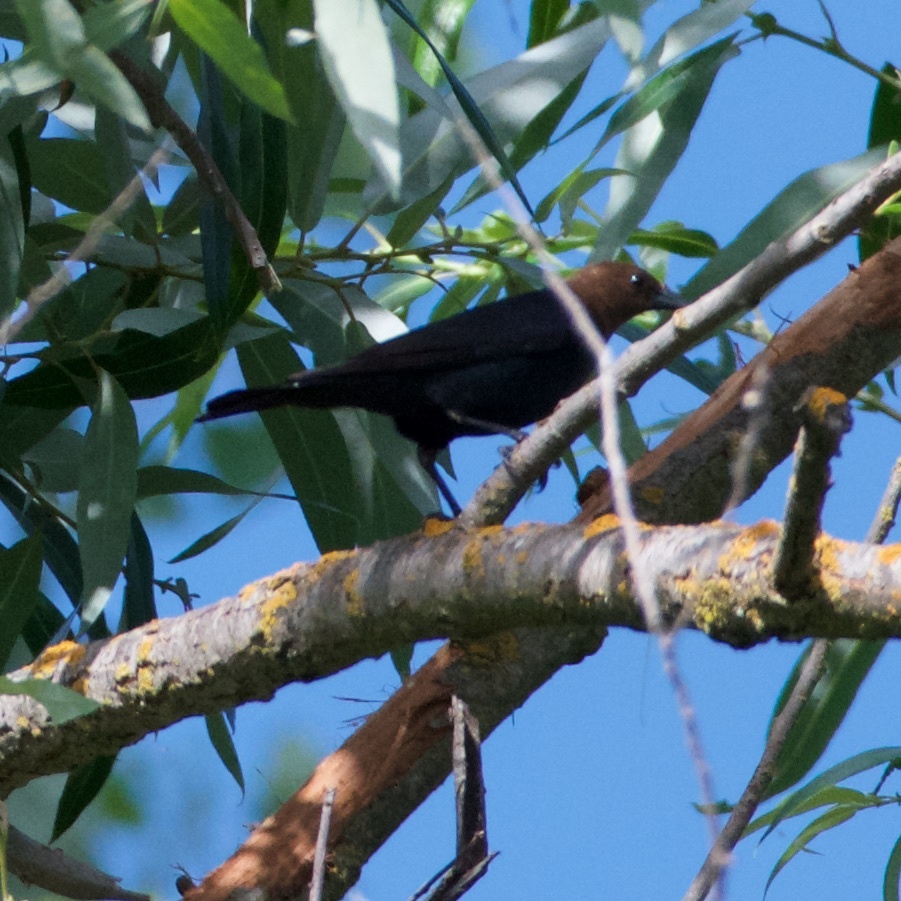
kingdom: Animalia
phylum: Chordata
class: Aves
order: Passeriformes
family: Icteridae
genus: Molothrus
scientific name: Molothrus ater
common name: Brown-headed cowbird
